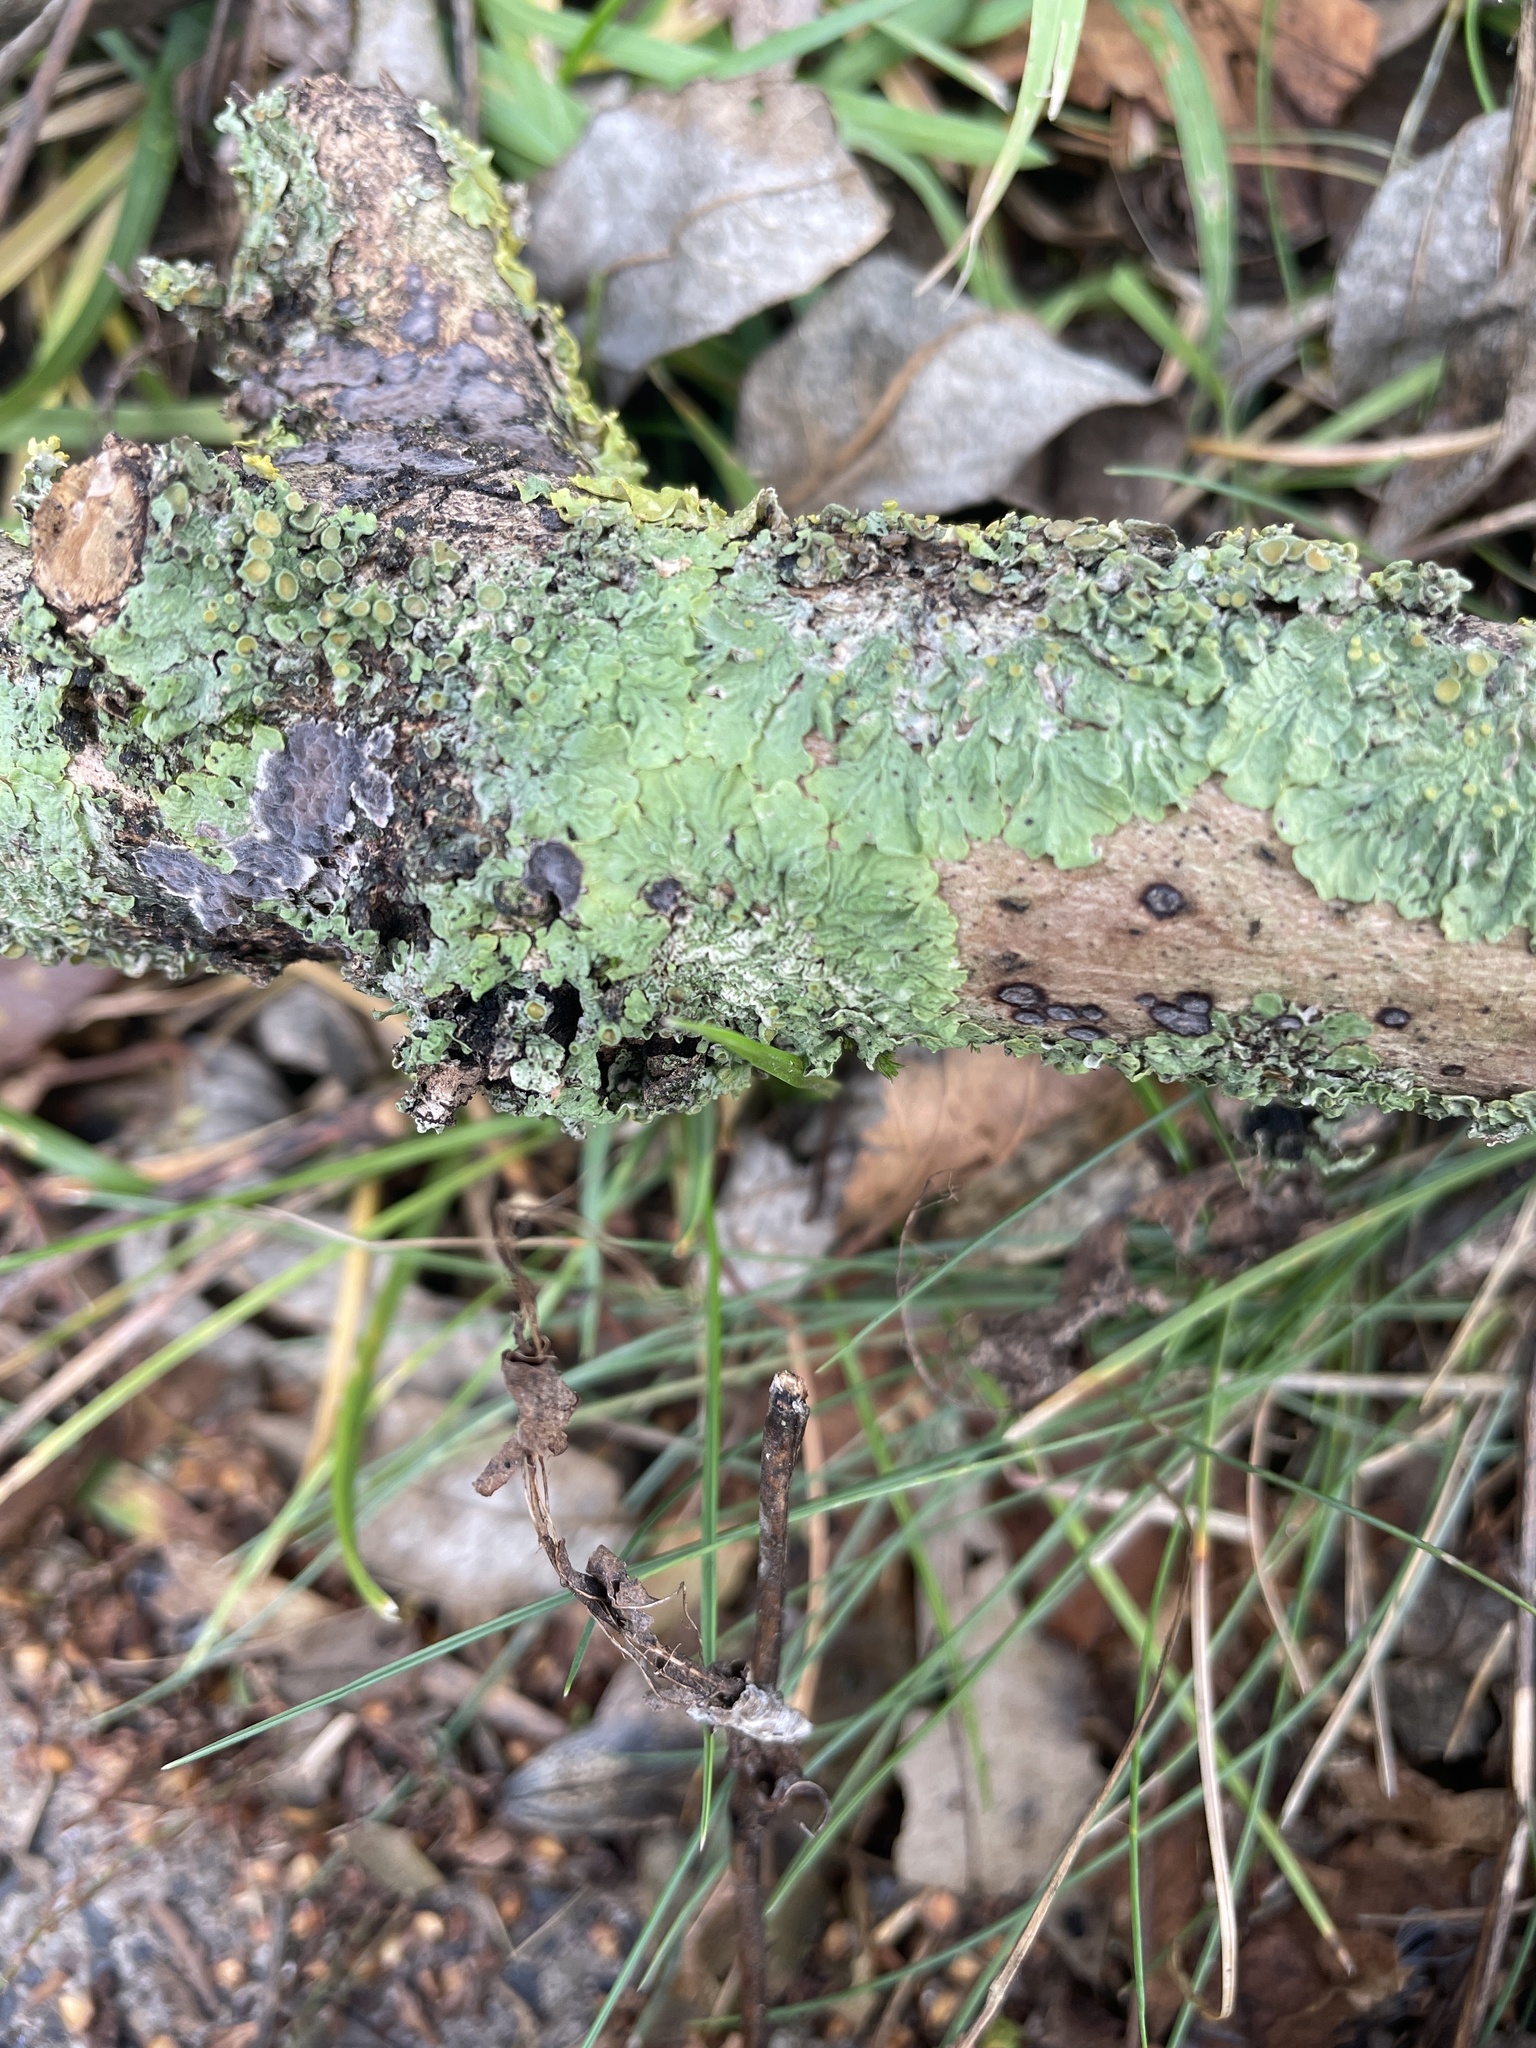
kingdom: Fungi
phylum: Ascomycota
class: Lecanoromycetes
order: Teloschistales
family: Teloschistaceae
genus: Xanthoria
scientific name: Xanthoria parietina
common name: Common orange lichen
